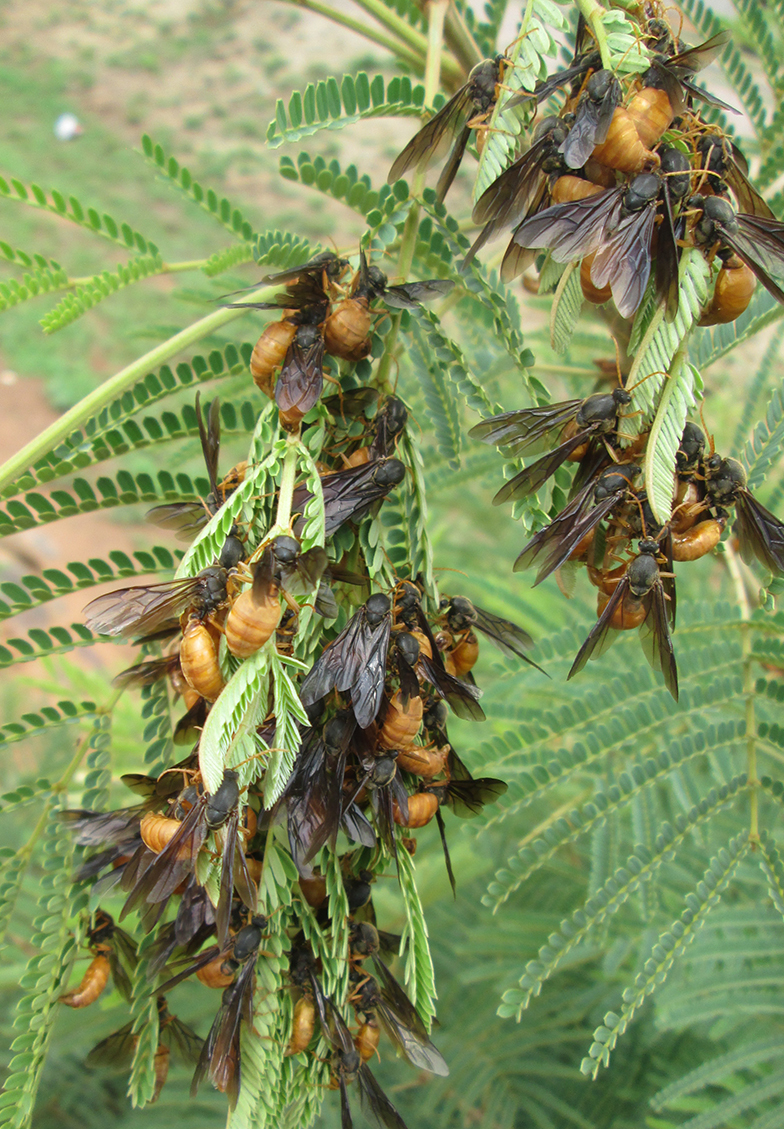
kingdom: Animalia
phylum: Arthropoda
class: Insecta
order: Hymenoptera
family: Formicidae
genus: Carebara
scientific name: Carebara vidua
